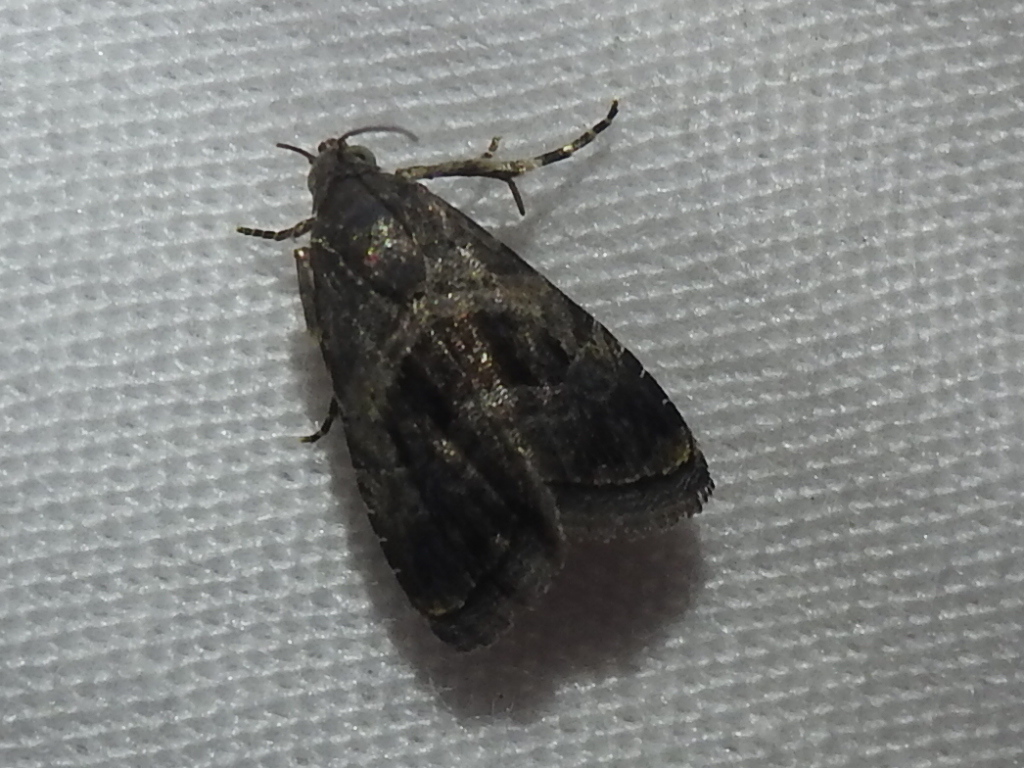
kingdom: Animalia
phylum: Arthropoda
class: Insecta
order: Lepidoptera
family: Noctuidae
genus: Tripudia
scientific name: Tripudia quadrifera
